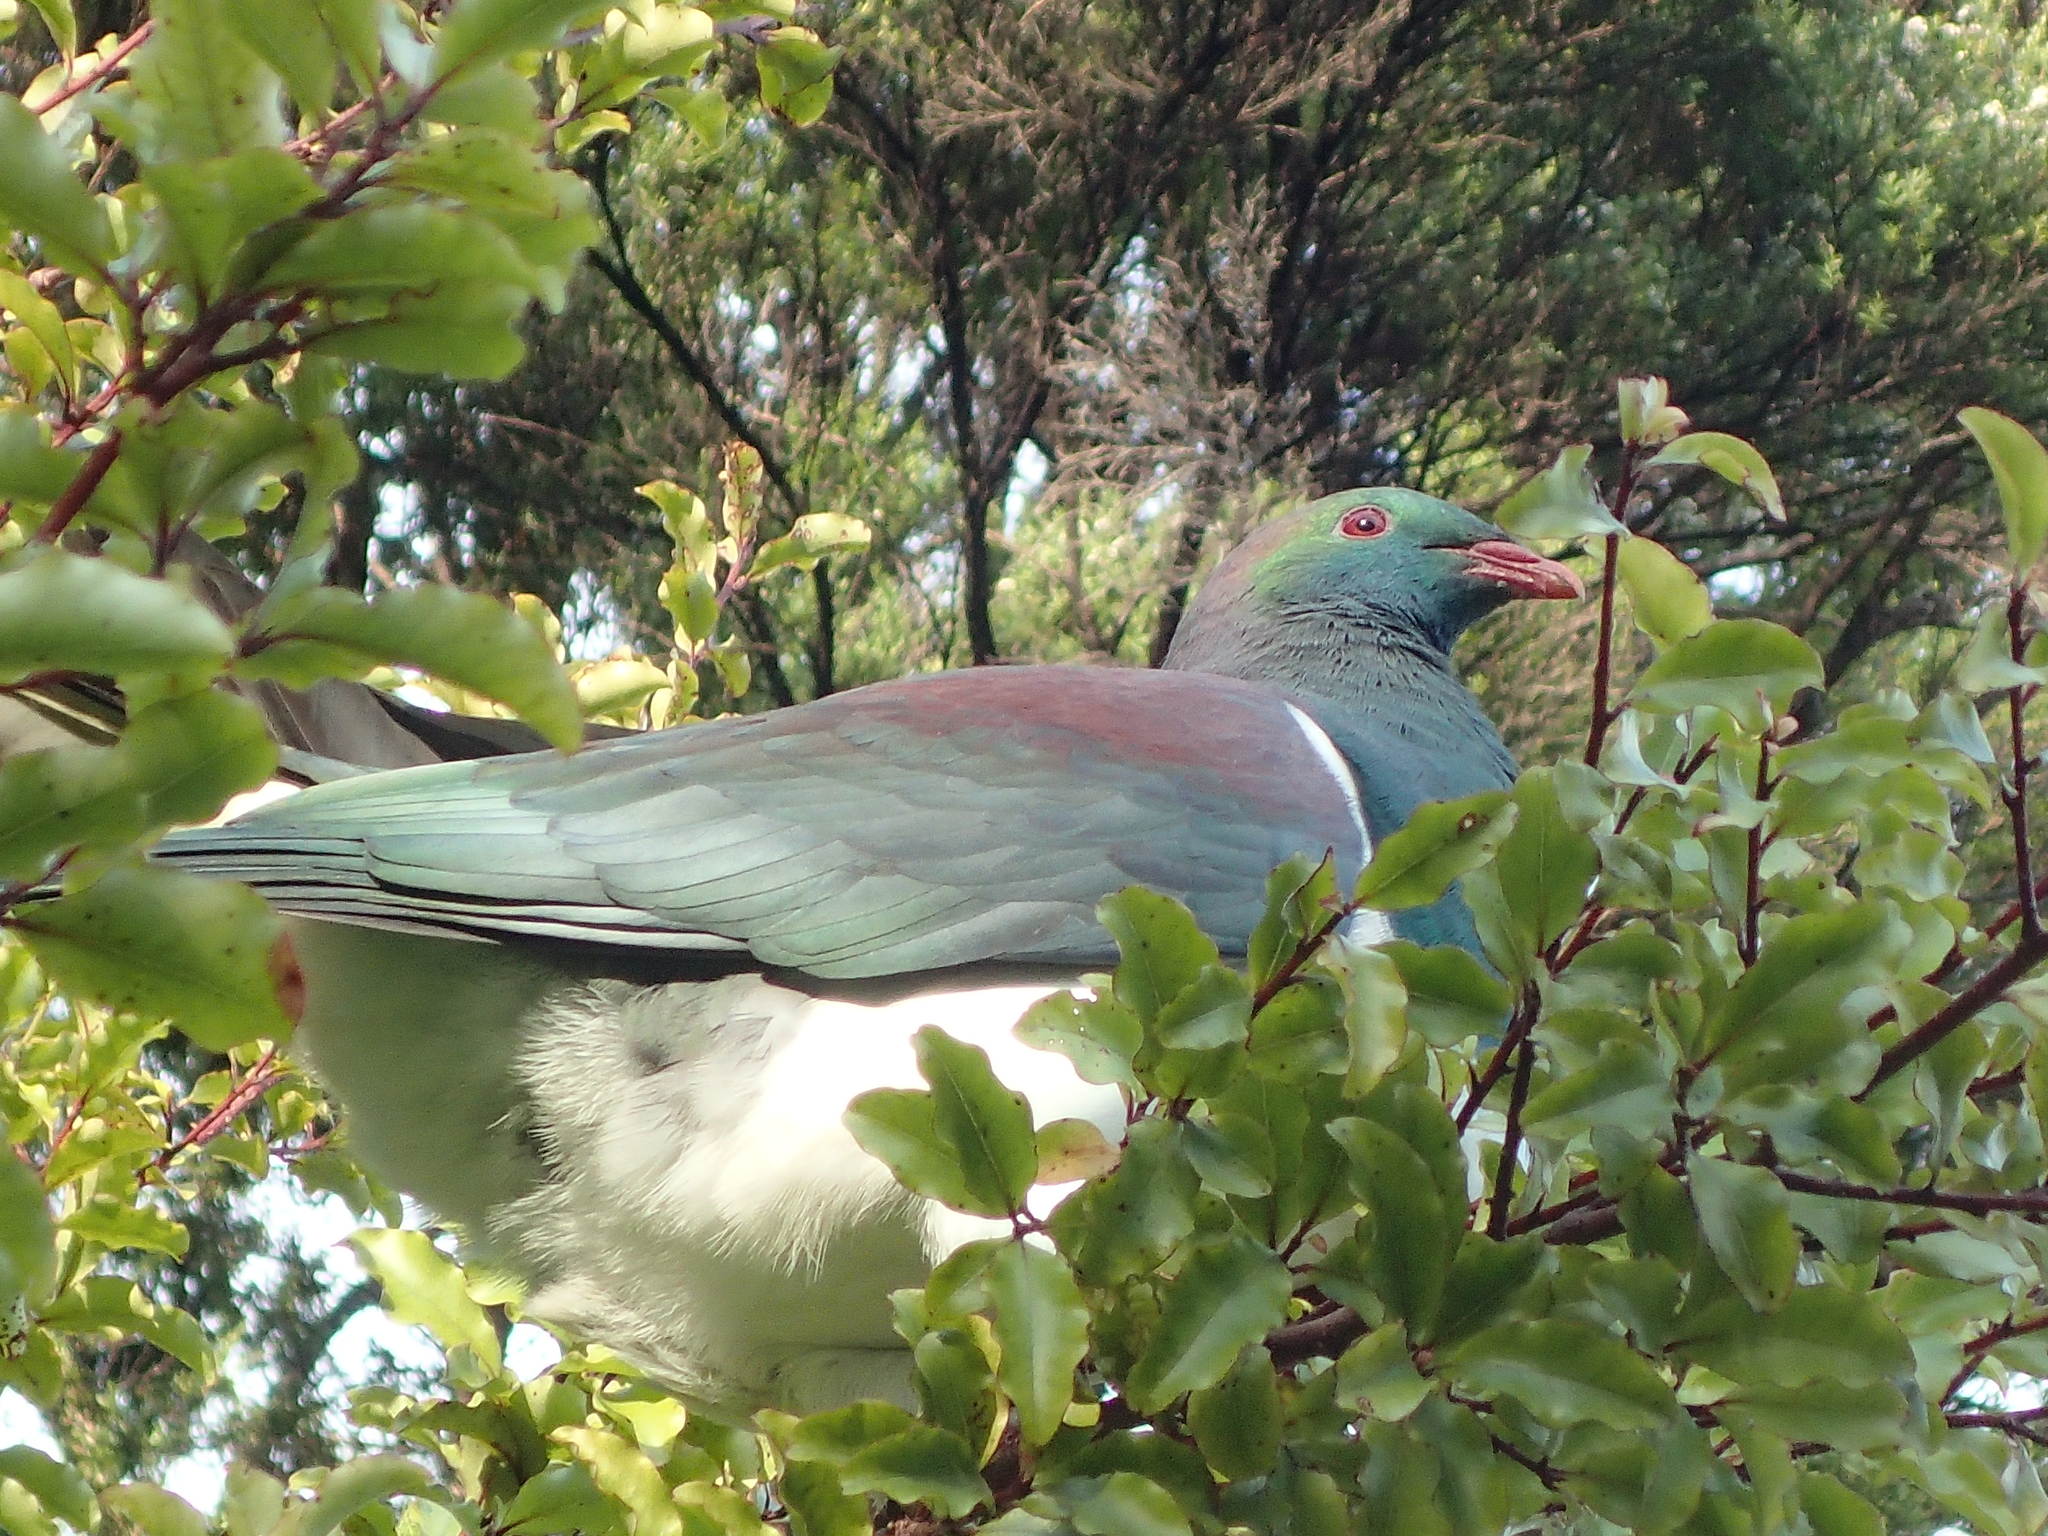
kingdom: Animalia
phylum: Chordata
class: Aves
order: Columbiformes
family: Columbidae
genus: Hemiphaga
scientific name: Hemiphaga novaeseelandiae
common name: New zealand pigeon
